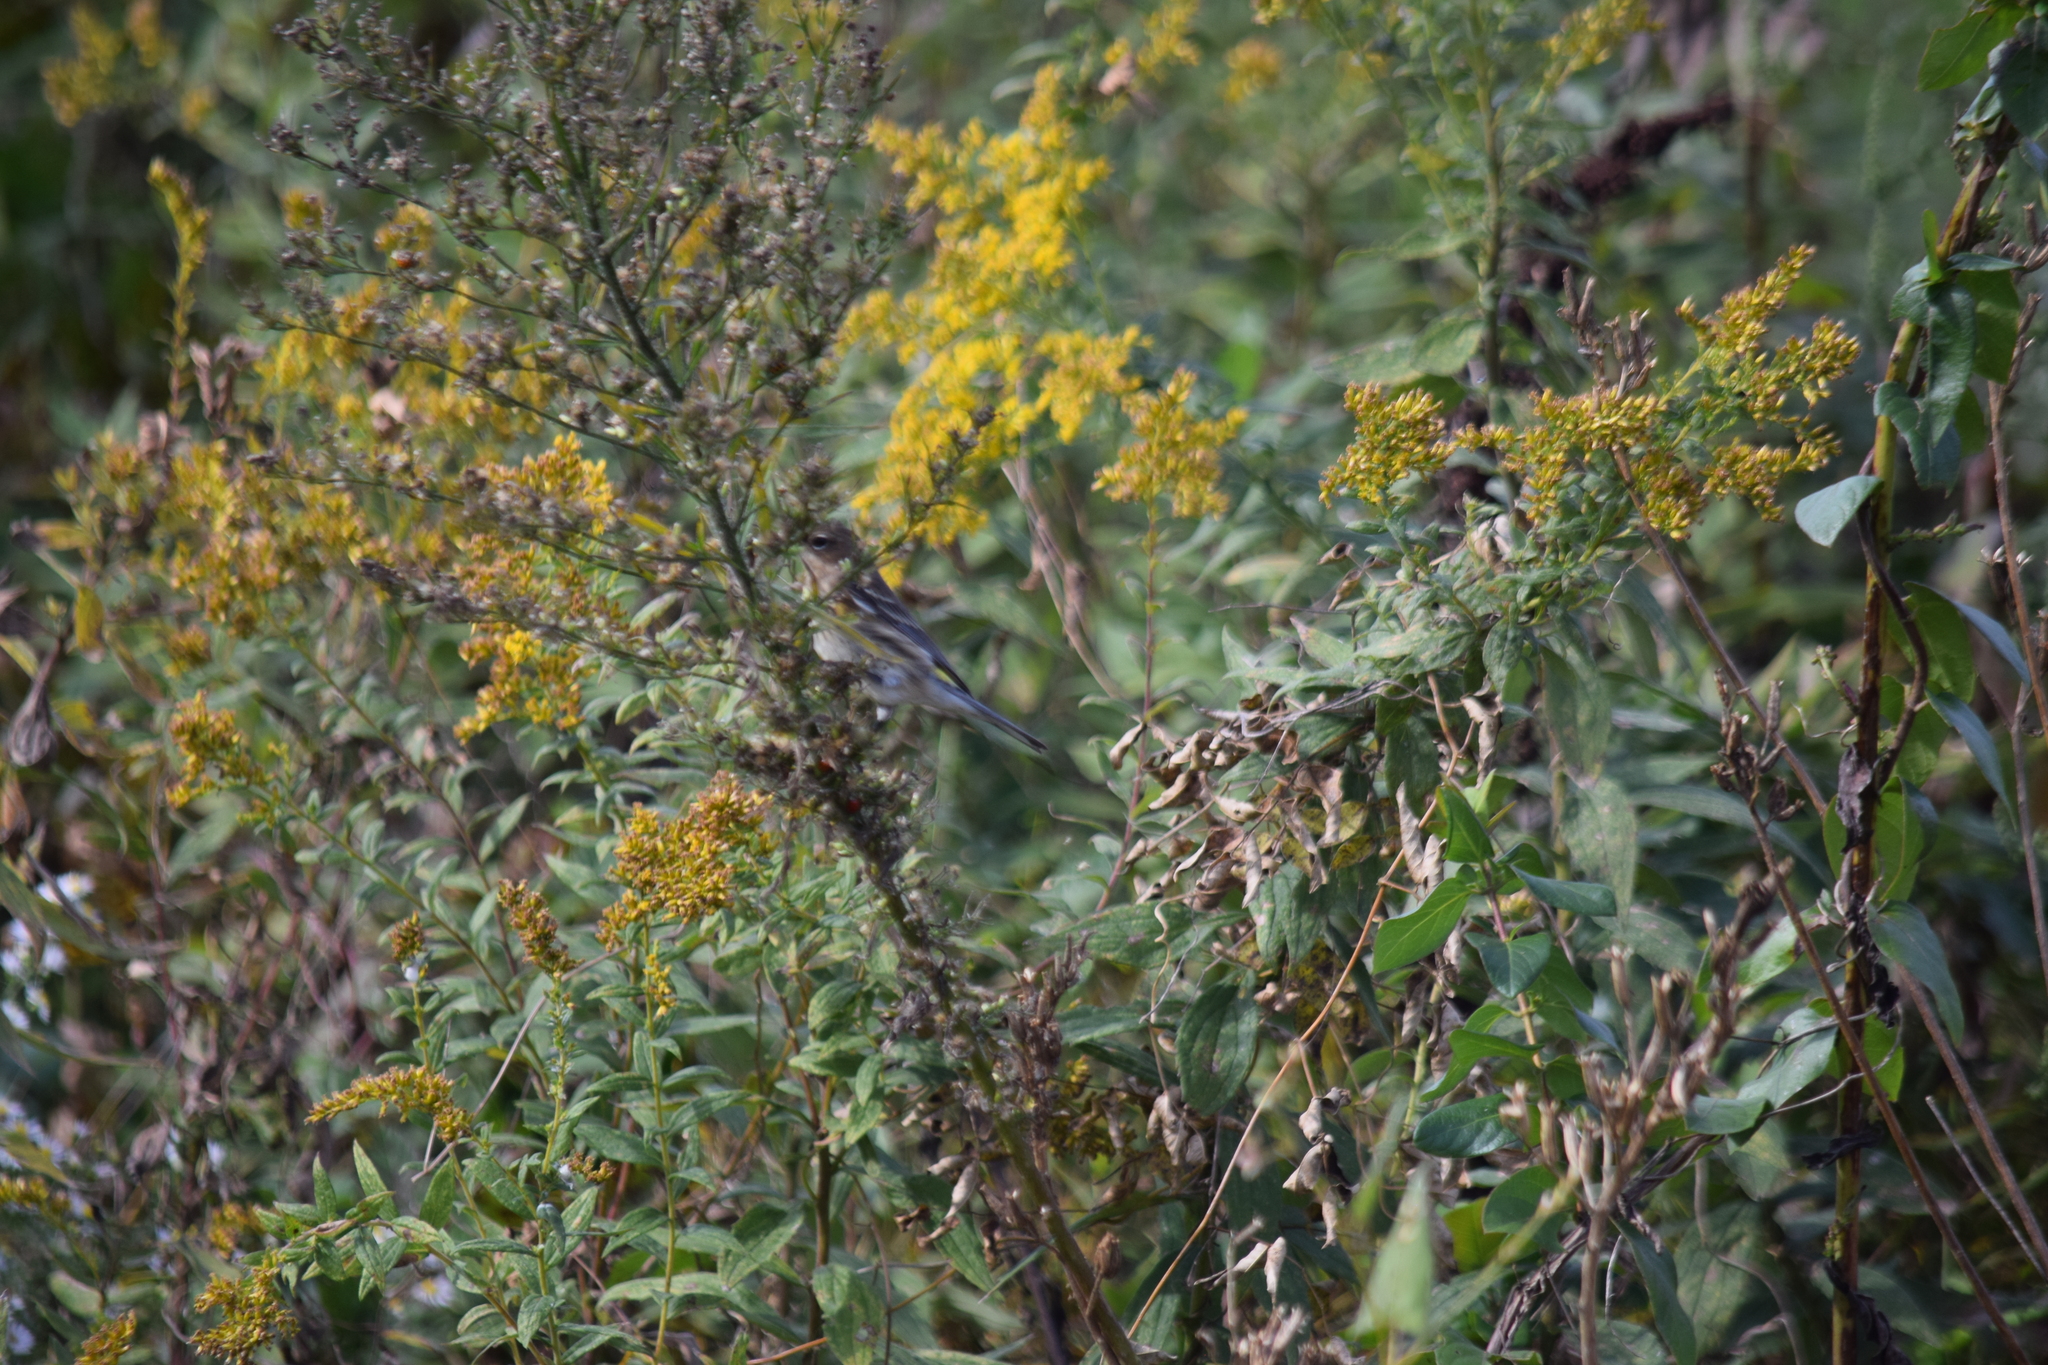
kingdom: Animalia
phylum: Chordata
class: Aves
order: Passeriformes
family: Parulidae
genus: Setophaga
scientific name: Setophaga coronata
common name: Myrtle warbler
